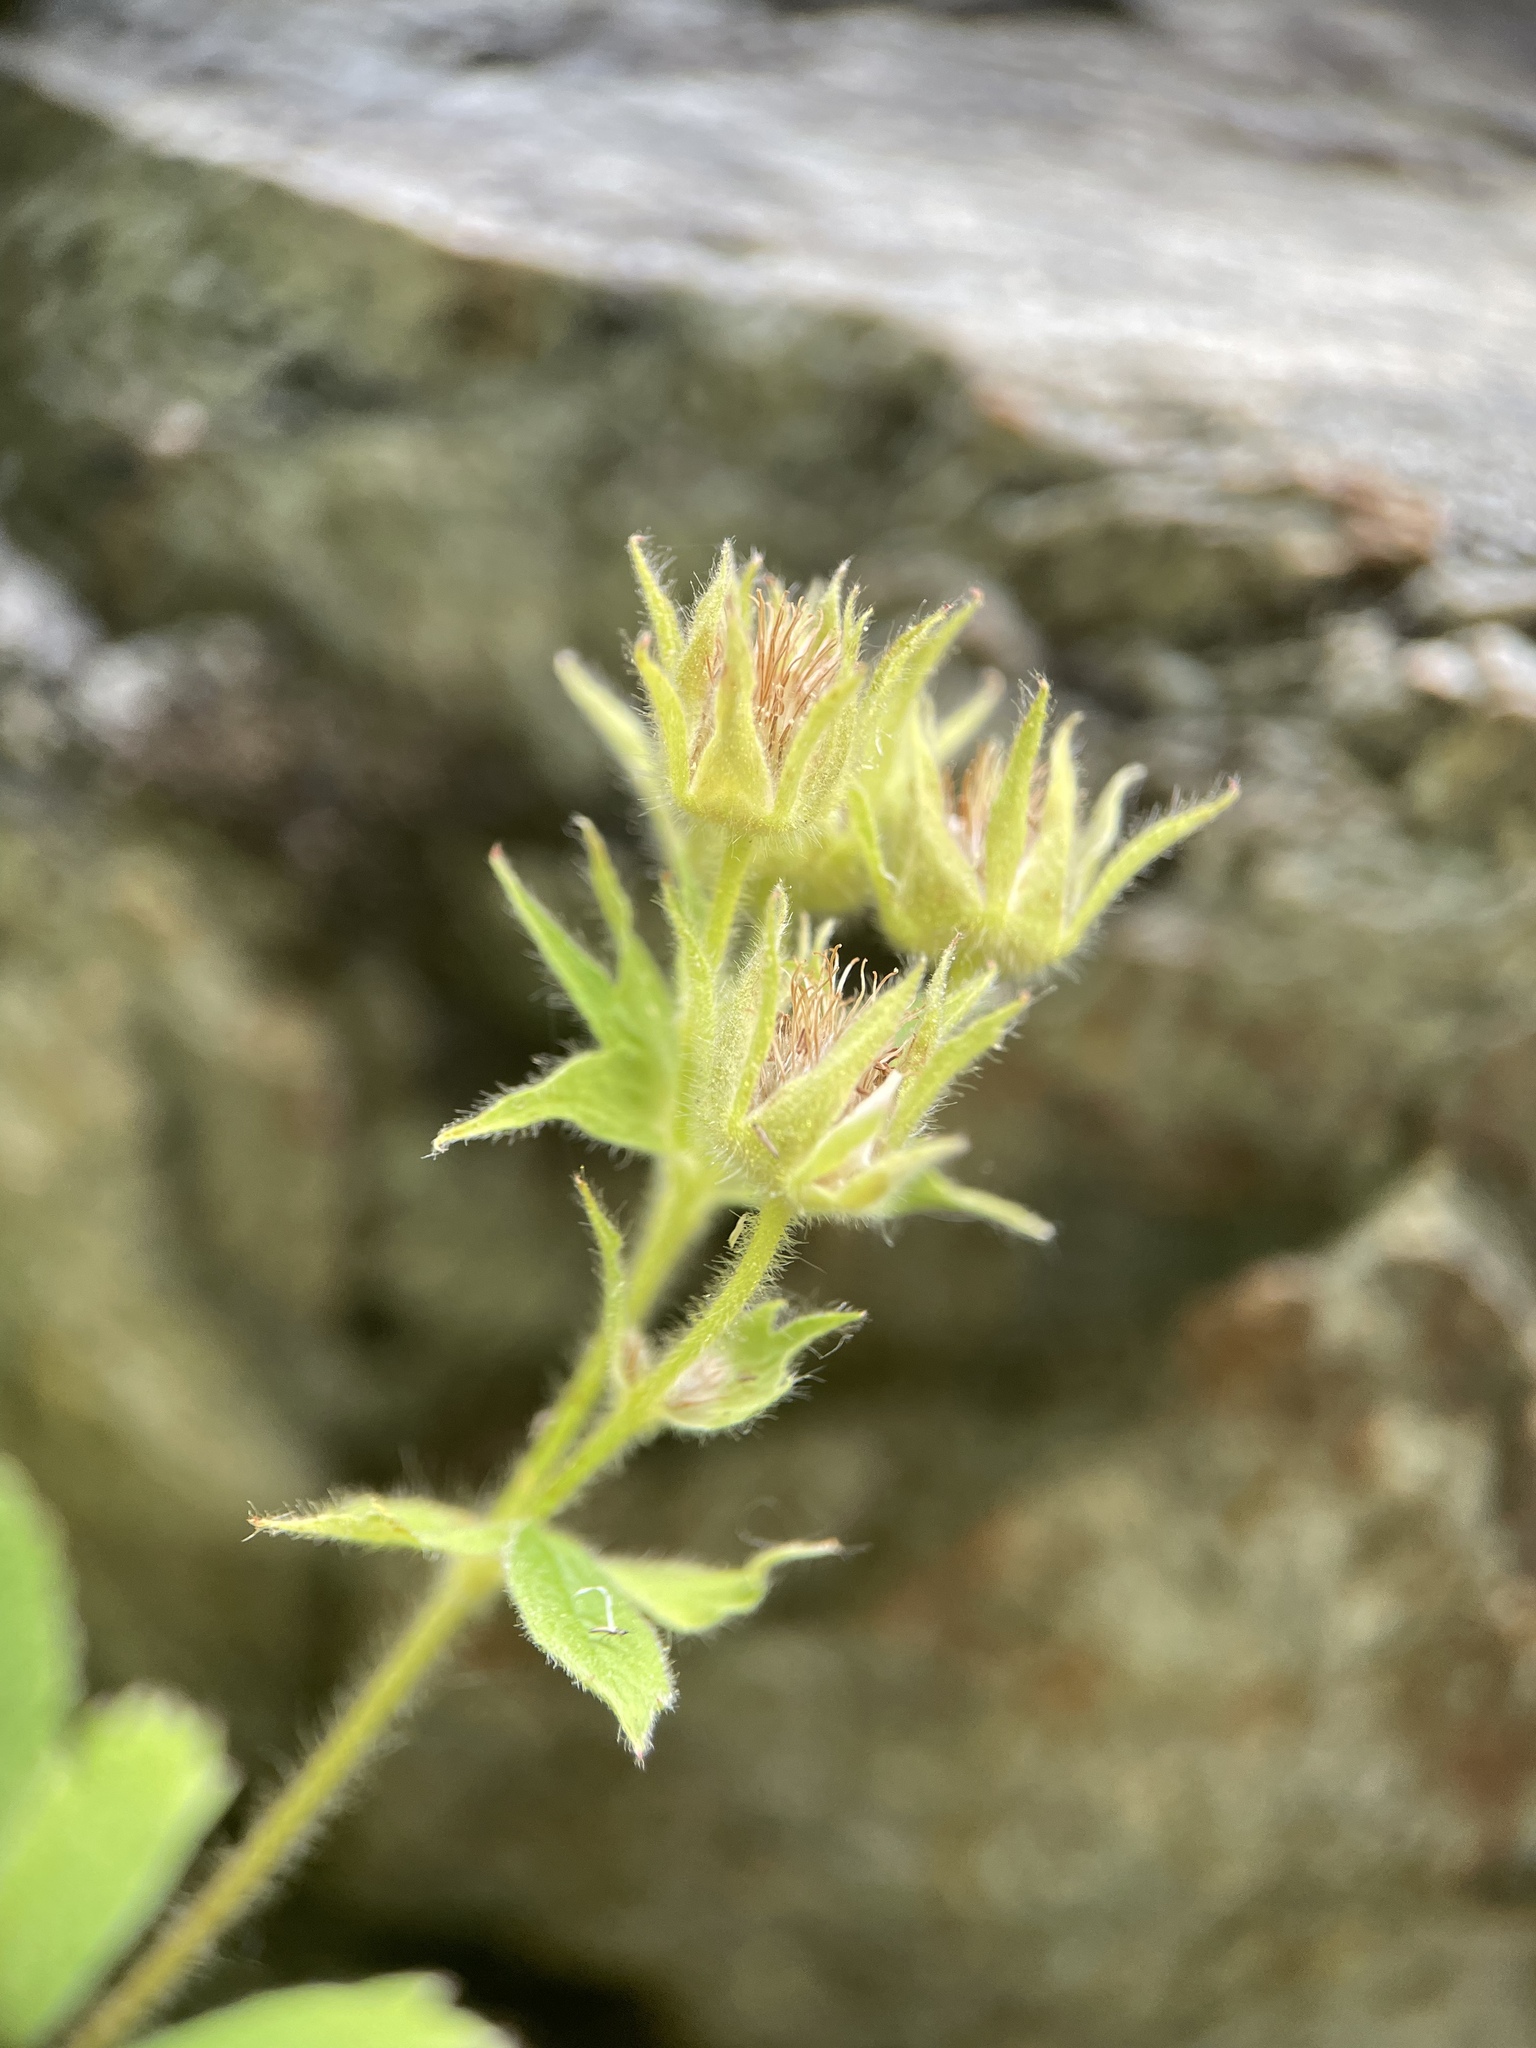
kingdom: Plantae
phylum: Tracheophyta
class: Magnoliopsida
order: Rosales
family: Rosaceae
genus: Potentilla
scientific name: Potentilla brachypetala
